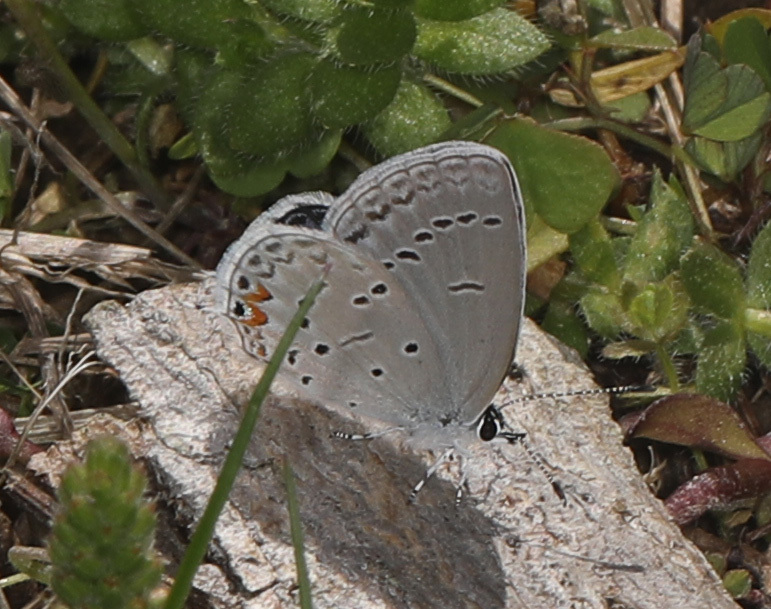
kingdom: Animalia
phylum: Arthropoda
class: Insecta
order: Lepidoptera
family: Lycaenidae
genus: Elkalyce
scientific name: Elkalyce comyntas
